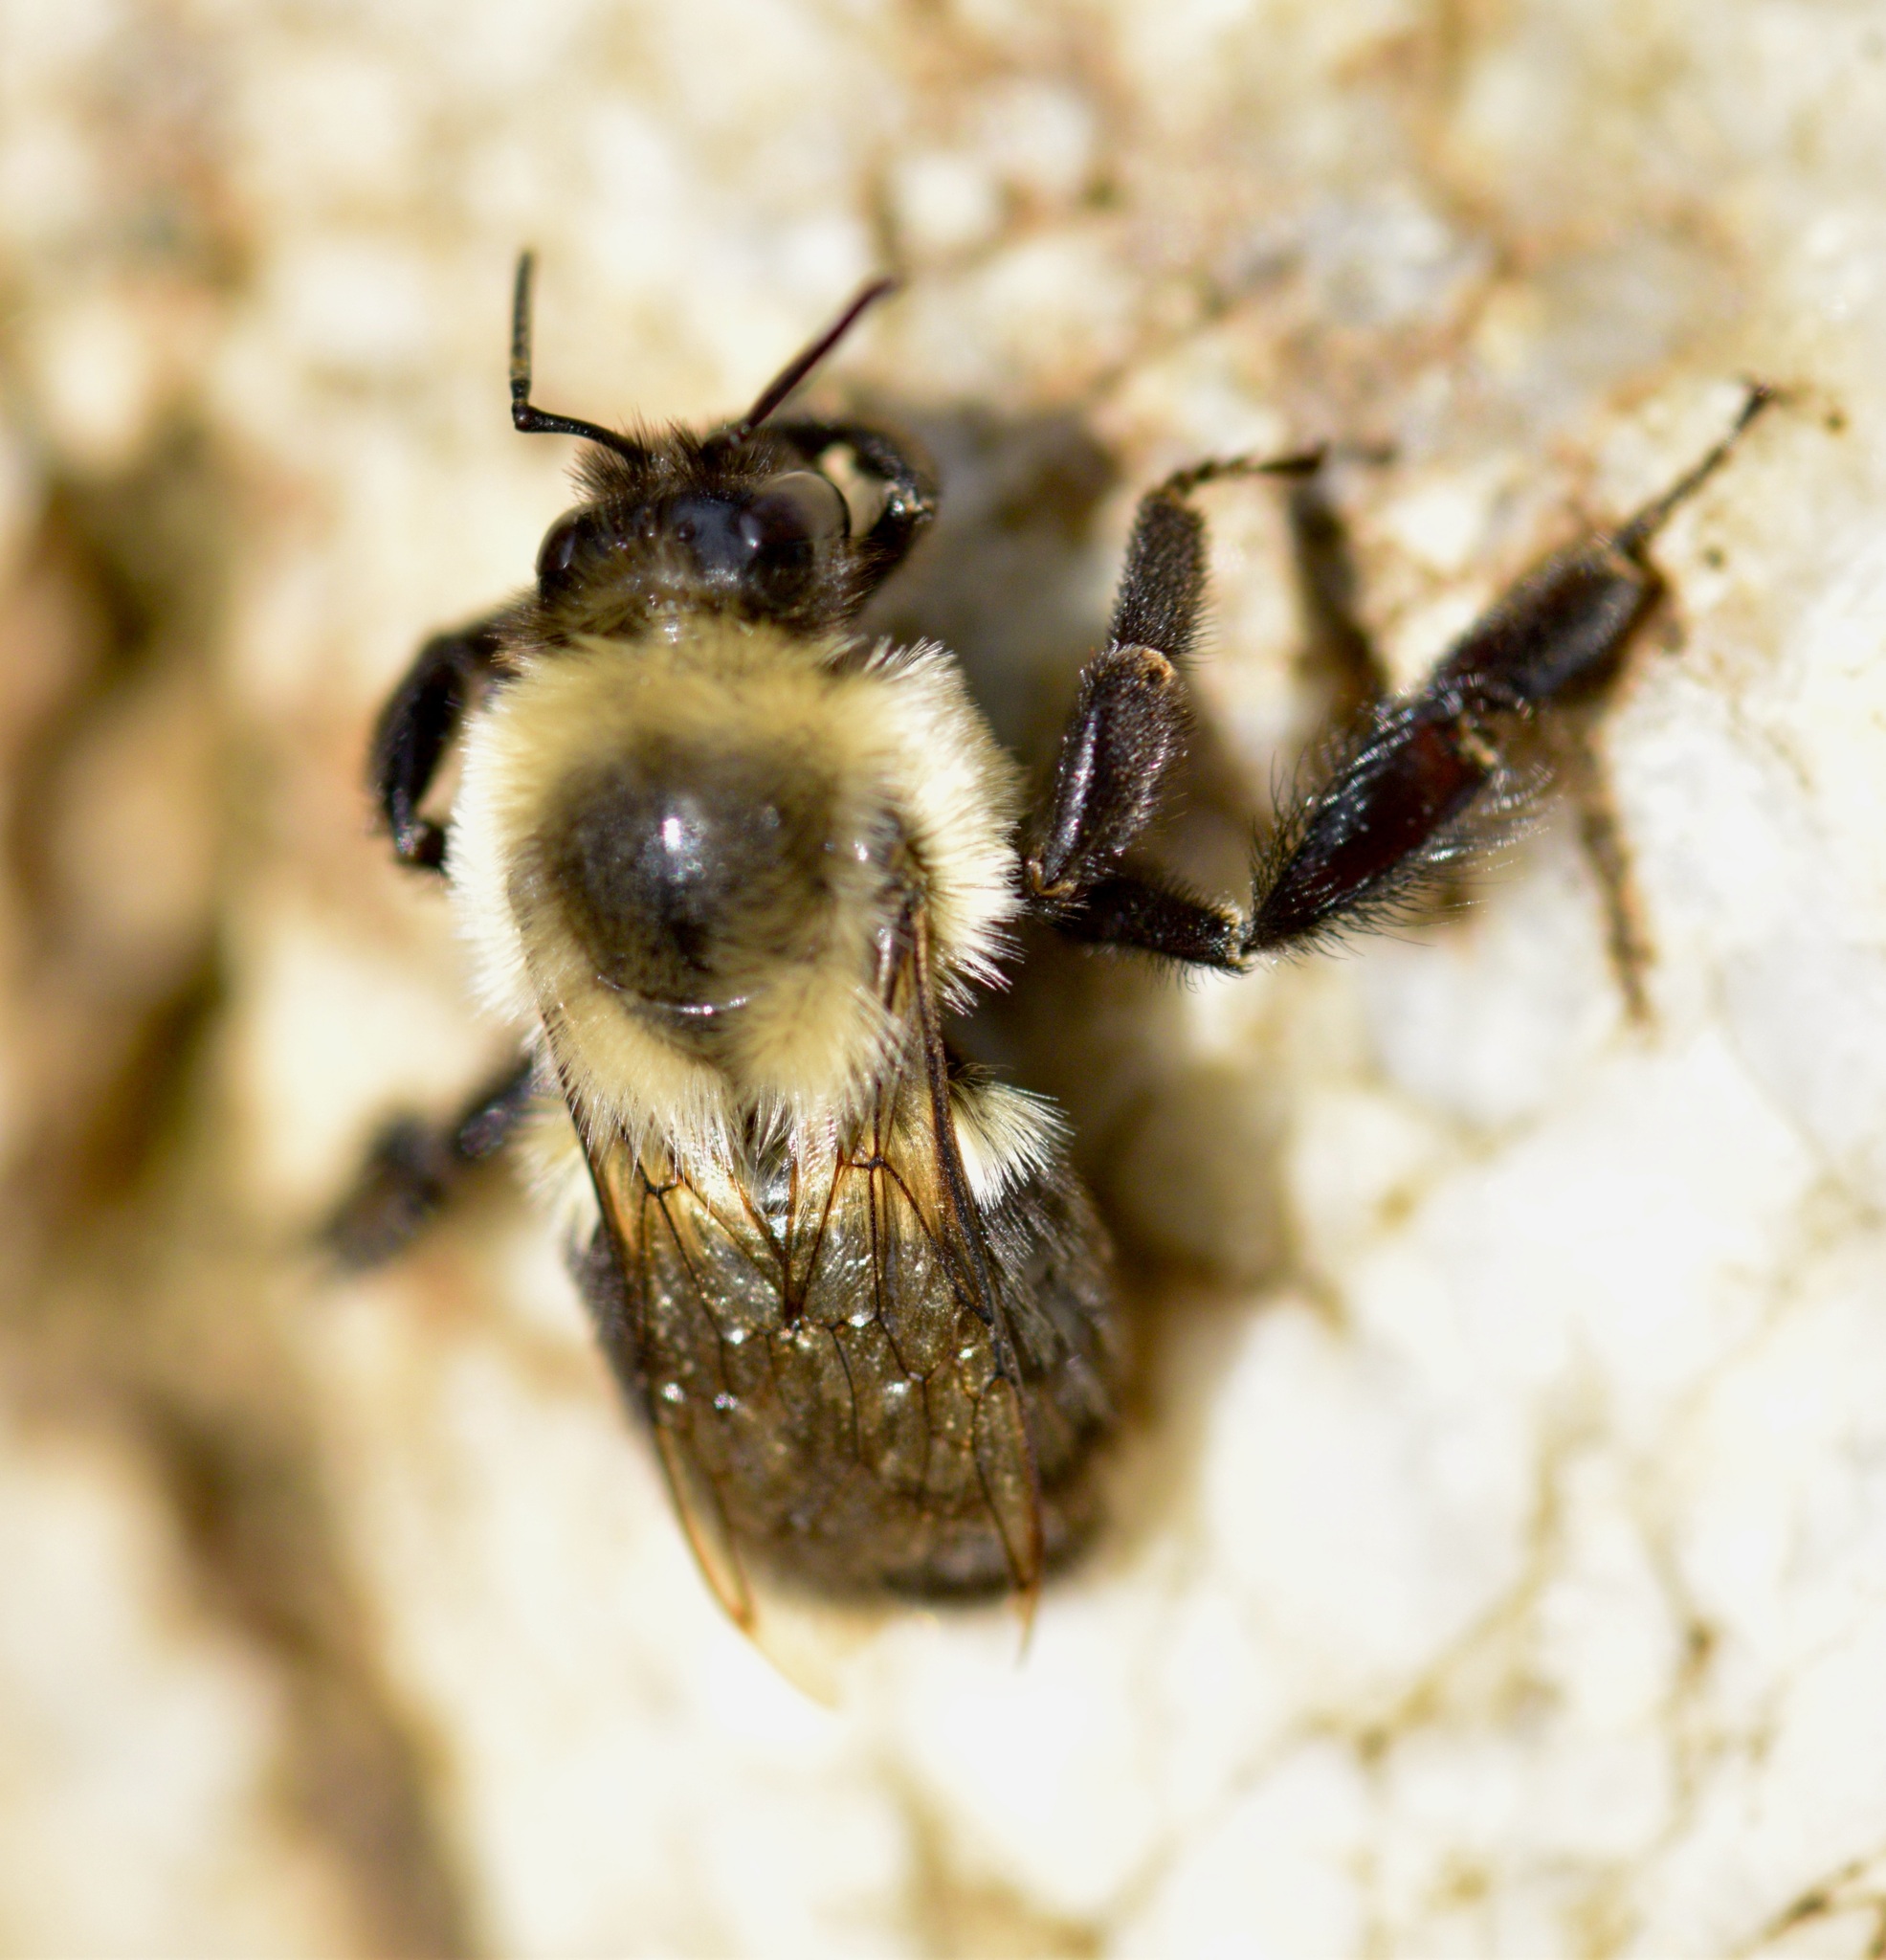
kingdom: Animalia
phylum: Arthropoda
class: Insecta
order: Hymenoptera
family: Apidae
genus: Bombus
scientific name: Bombus impatiens
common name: Common eastern bumble bee
